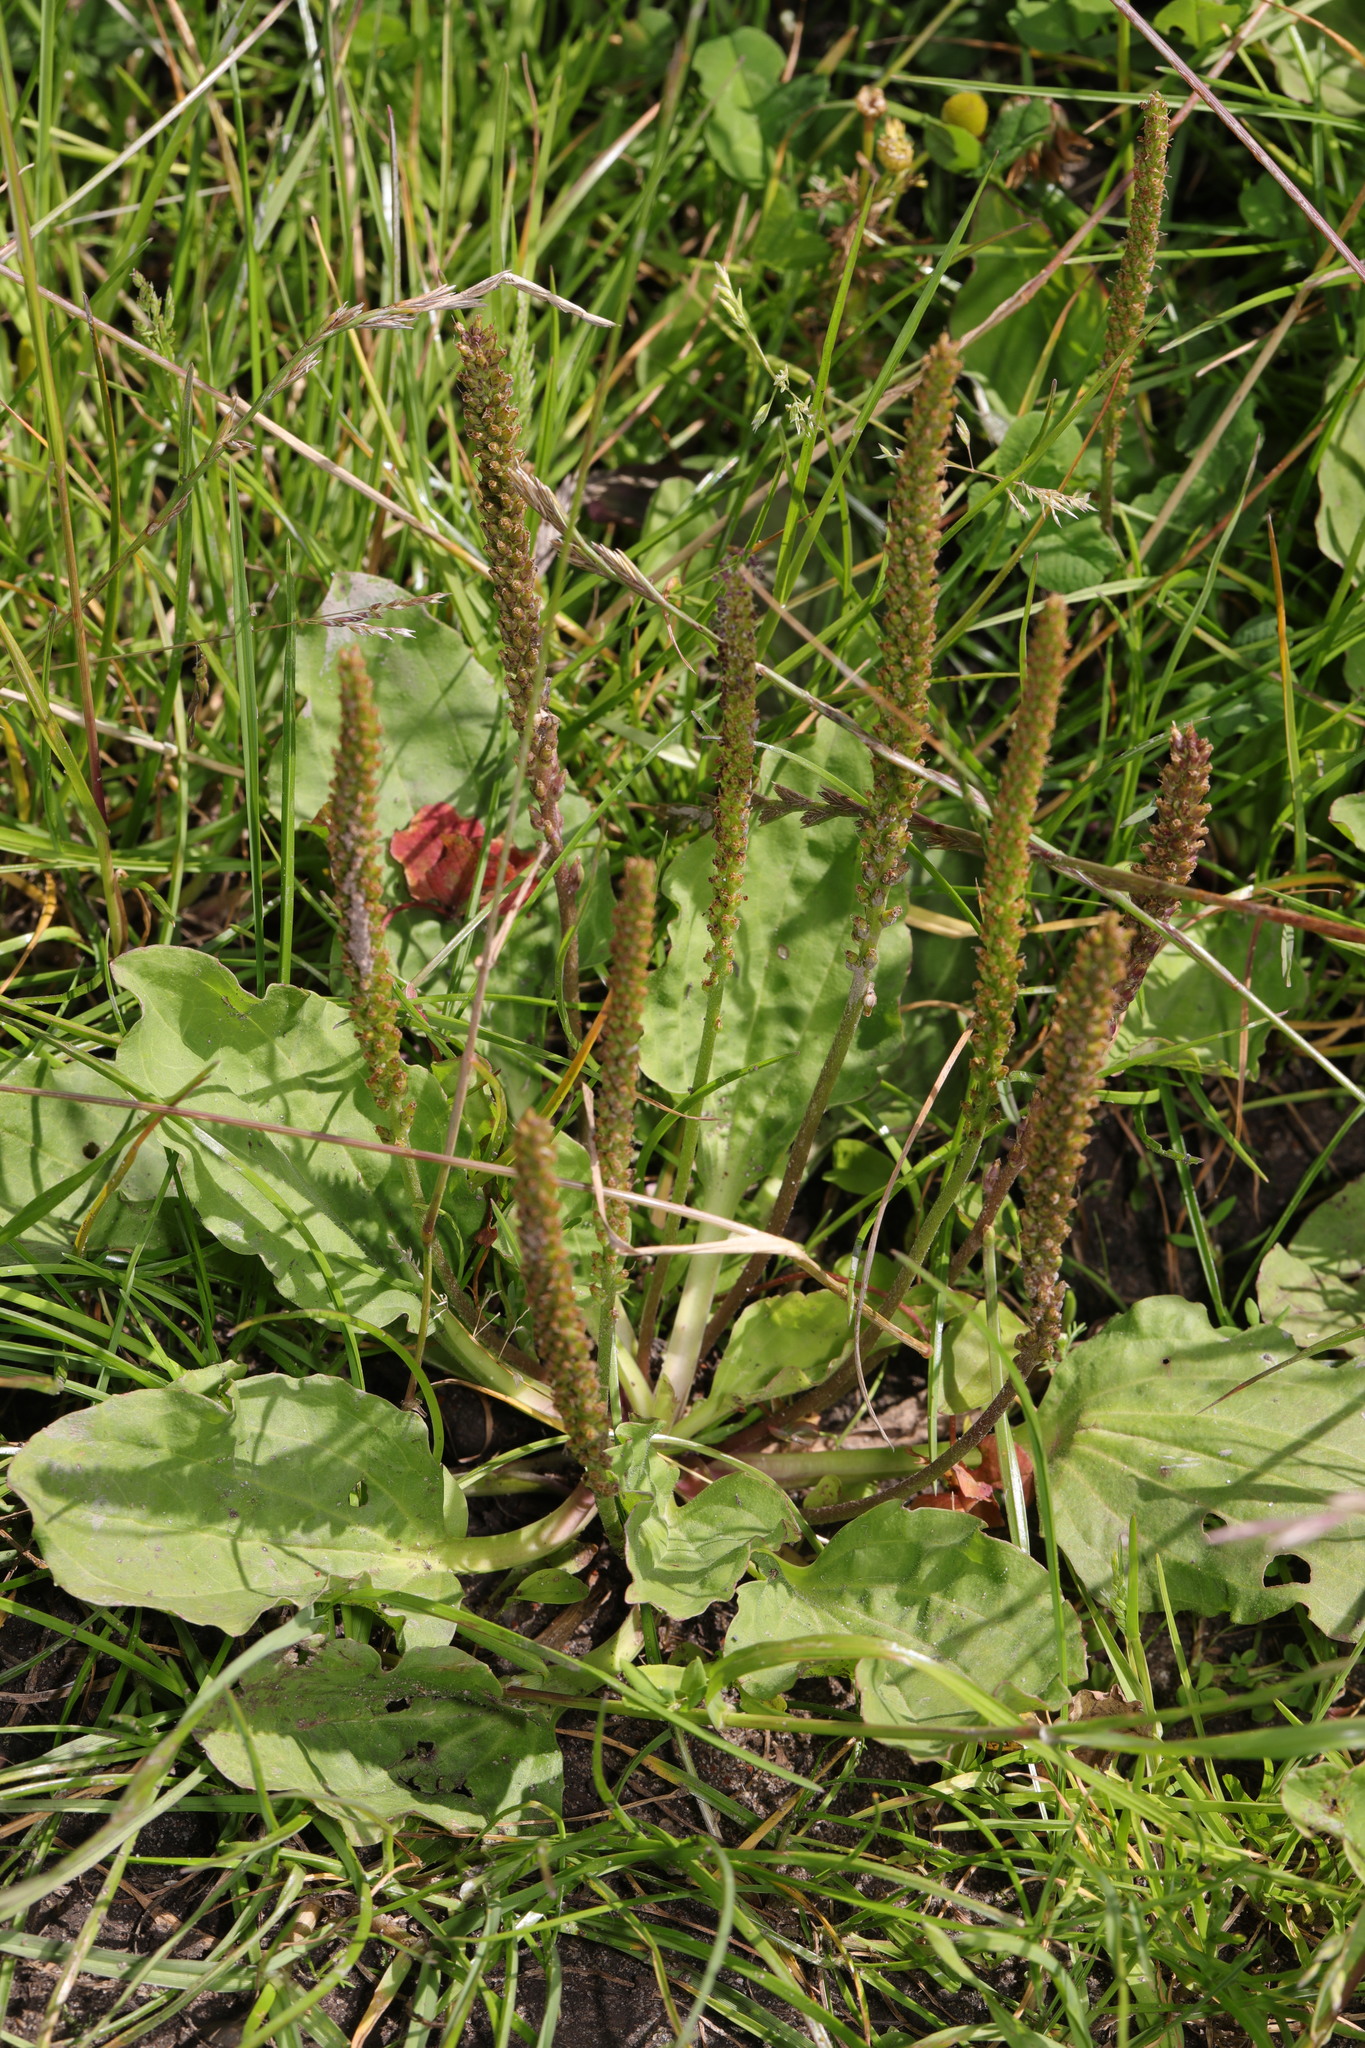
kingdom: Plantae
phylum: Tracheophyta
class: Magnoliopsida
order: Lamiales
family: Plantaginaceae
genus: Plantago
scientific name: Plantago major
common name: Common plantain
